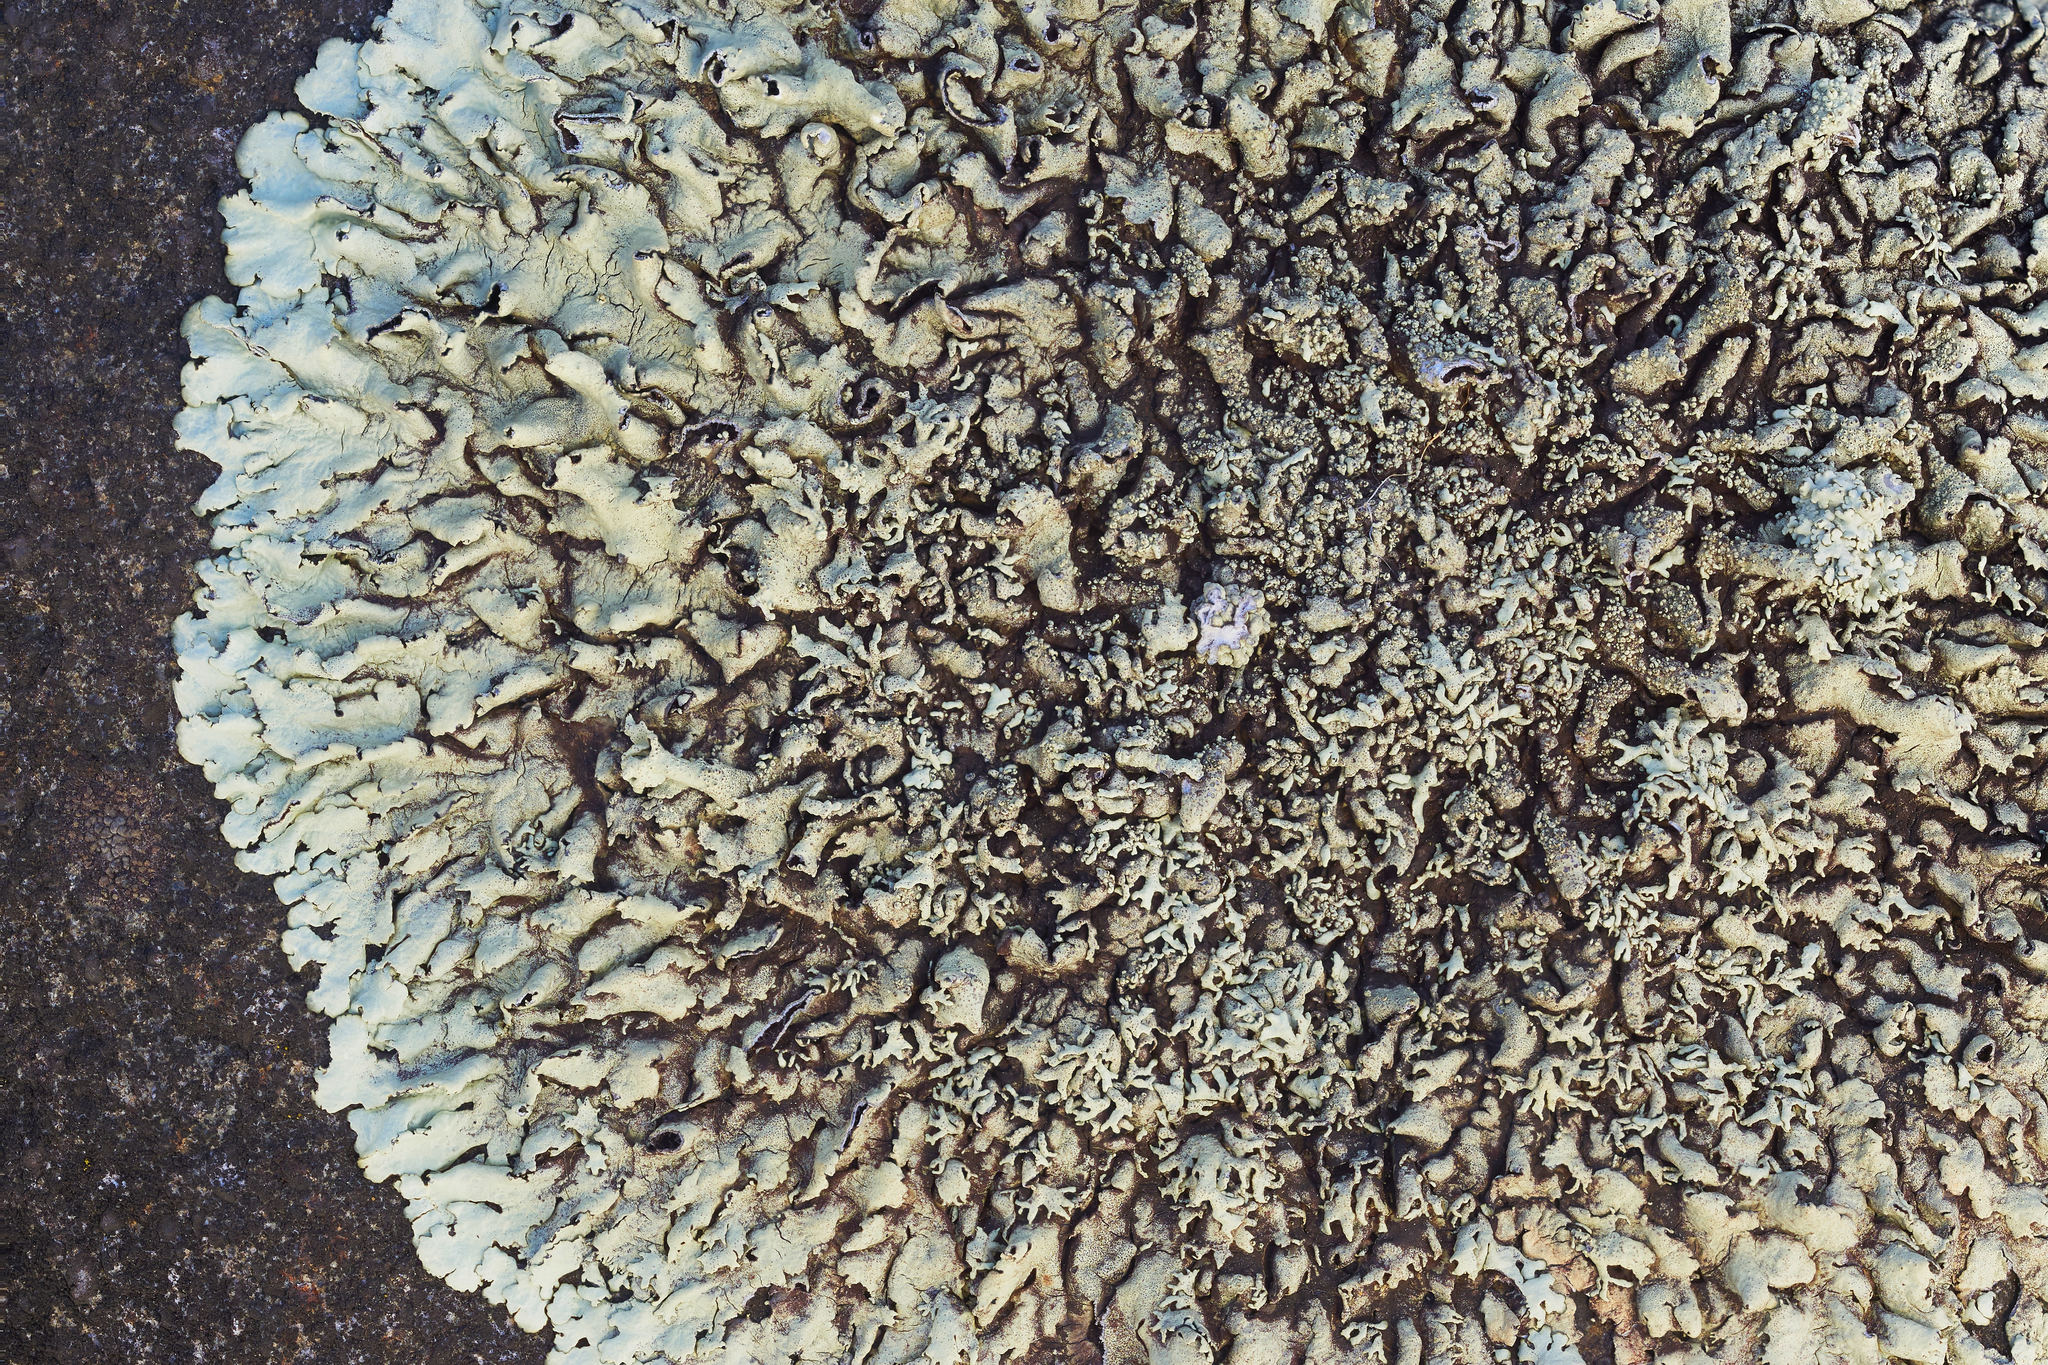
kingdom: Fungi
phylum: Ascomycota
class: Lecanoromycetes
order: Lecanorales
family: Parmeliaceae
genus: Xanthoparmelia
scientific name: Xanthoparmelia cumberlandia
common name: Cumberland rock shield
